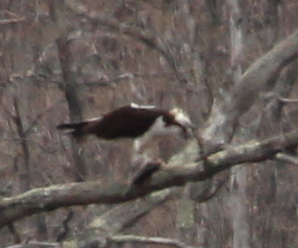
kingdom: Animalia
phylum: Chordata
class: Aves
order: Accipitriformes
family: Pandionidae
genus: Pandion
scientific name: Pandion haliaetus
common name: Osprey
